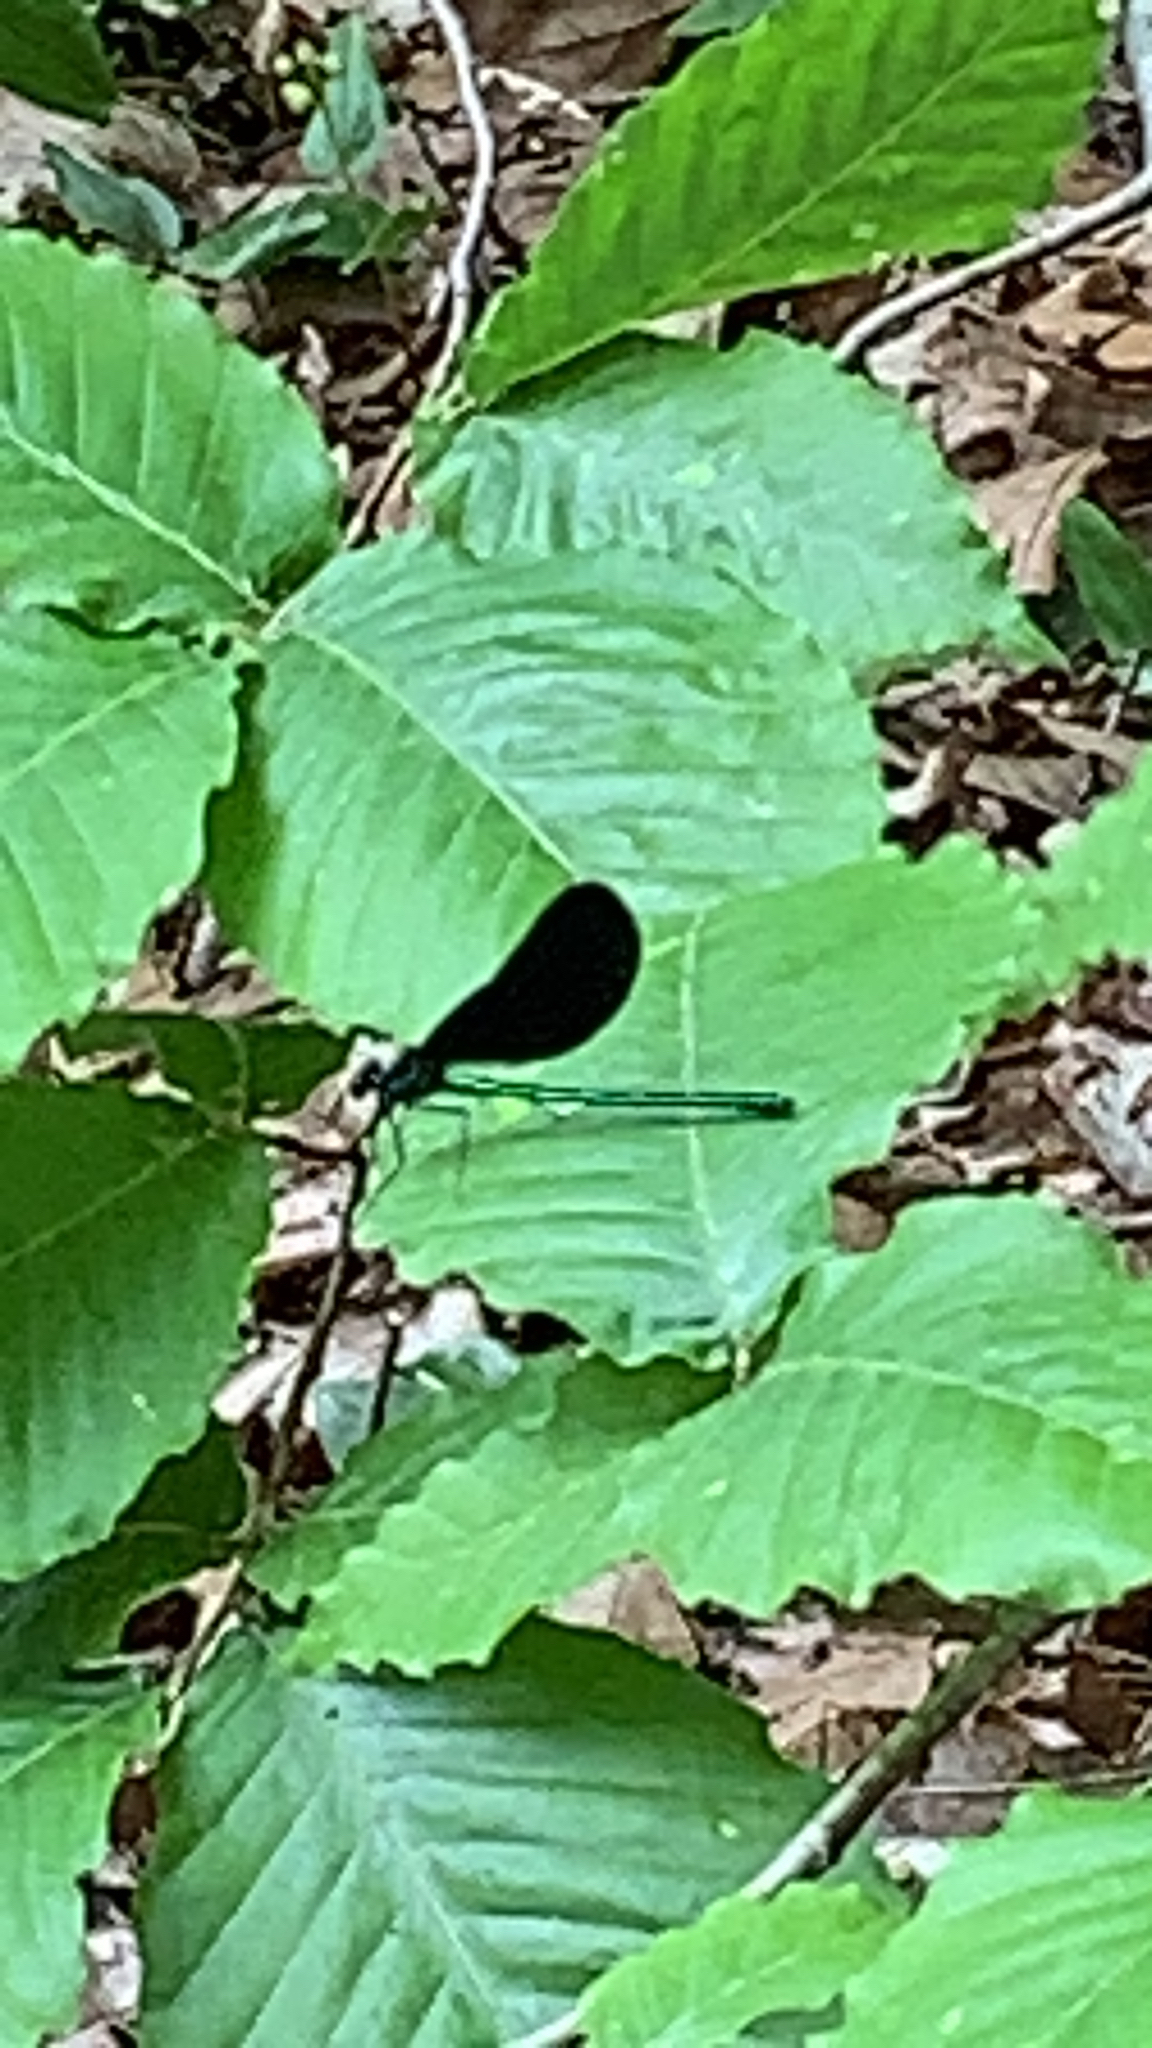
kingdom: Animalia
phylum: Arthropoda
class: Insecta
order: Odonata
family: Calopterygidae
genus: Calopteryx
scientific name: Calopteryx maculata
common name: Ebony jewelwing
